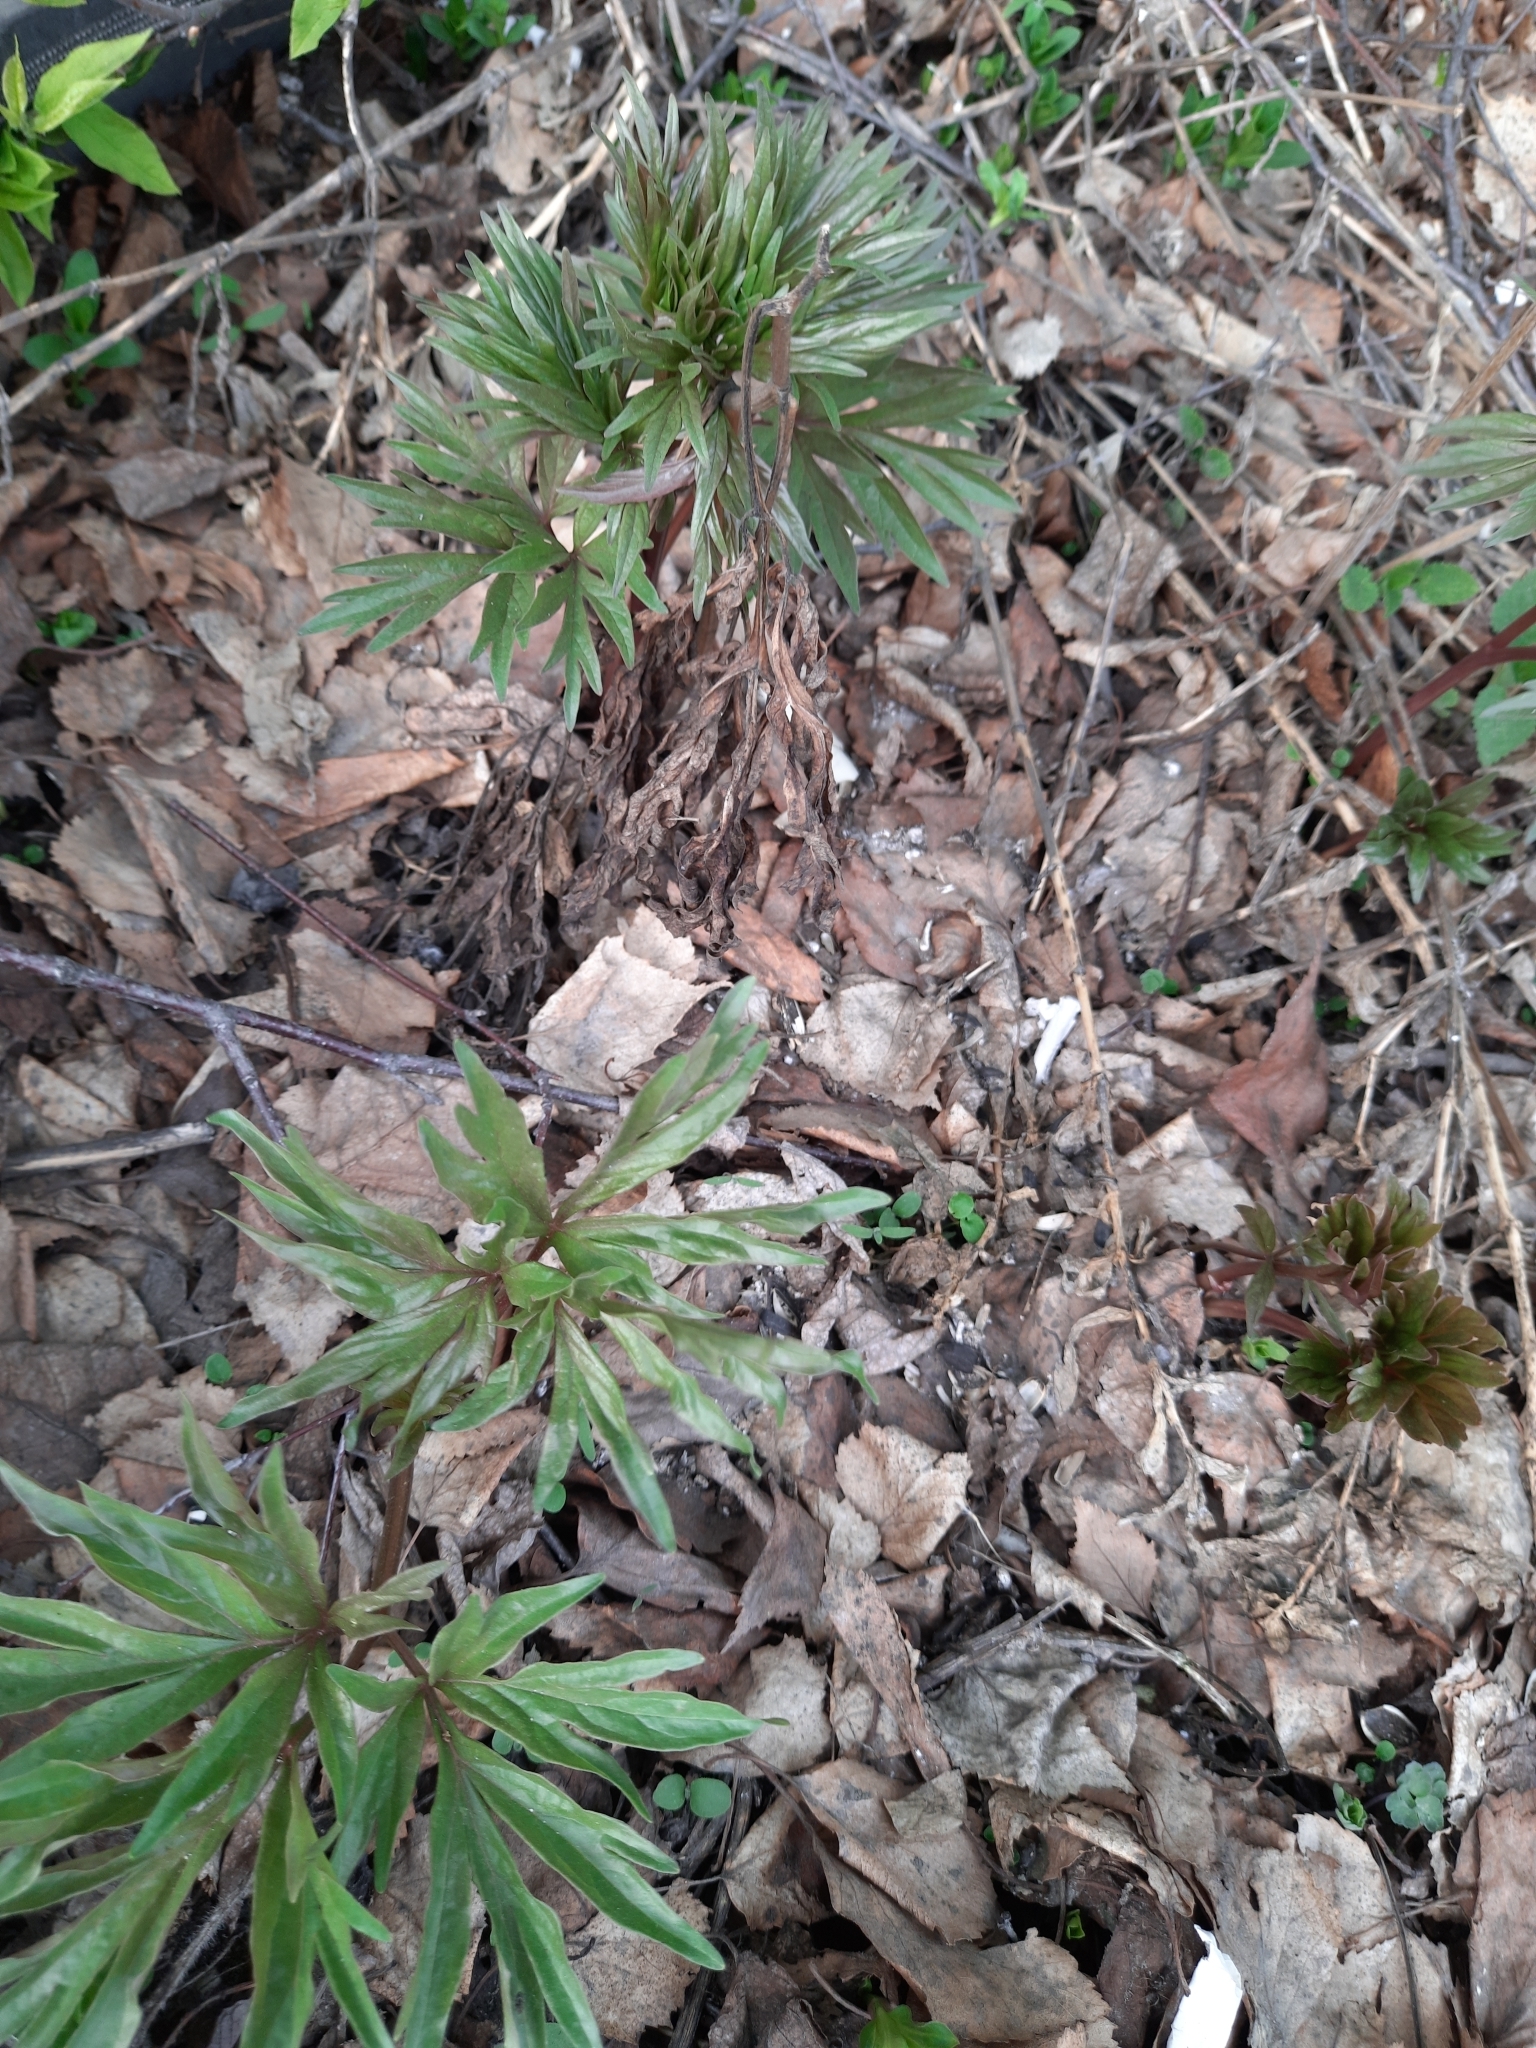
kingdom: Plantae
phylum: Tracheophyta
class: Magnoliopsida
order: Saxifragales
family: Paeoniaceae
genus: Paeonia
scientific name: Paeonia anomala
